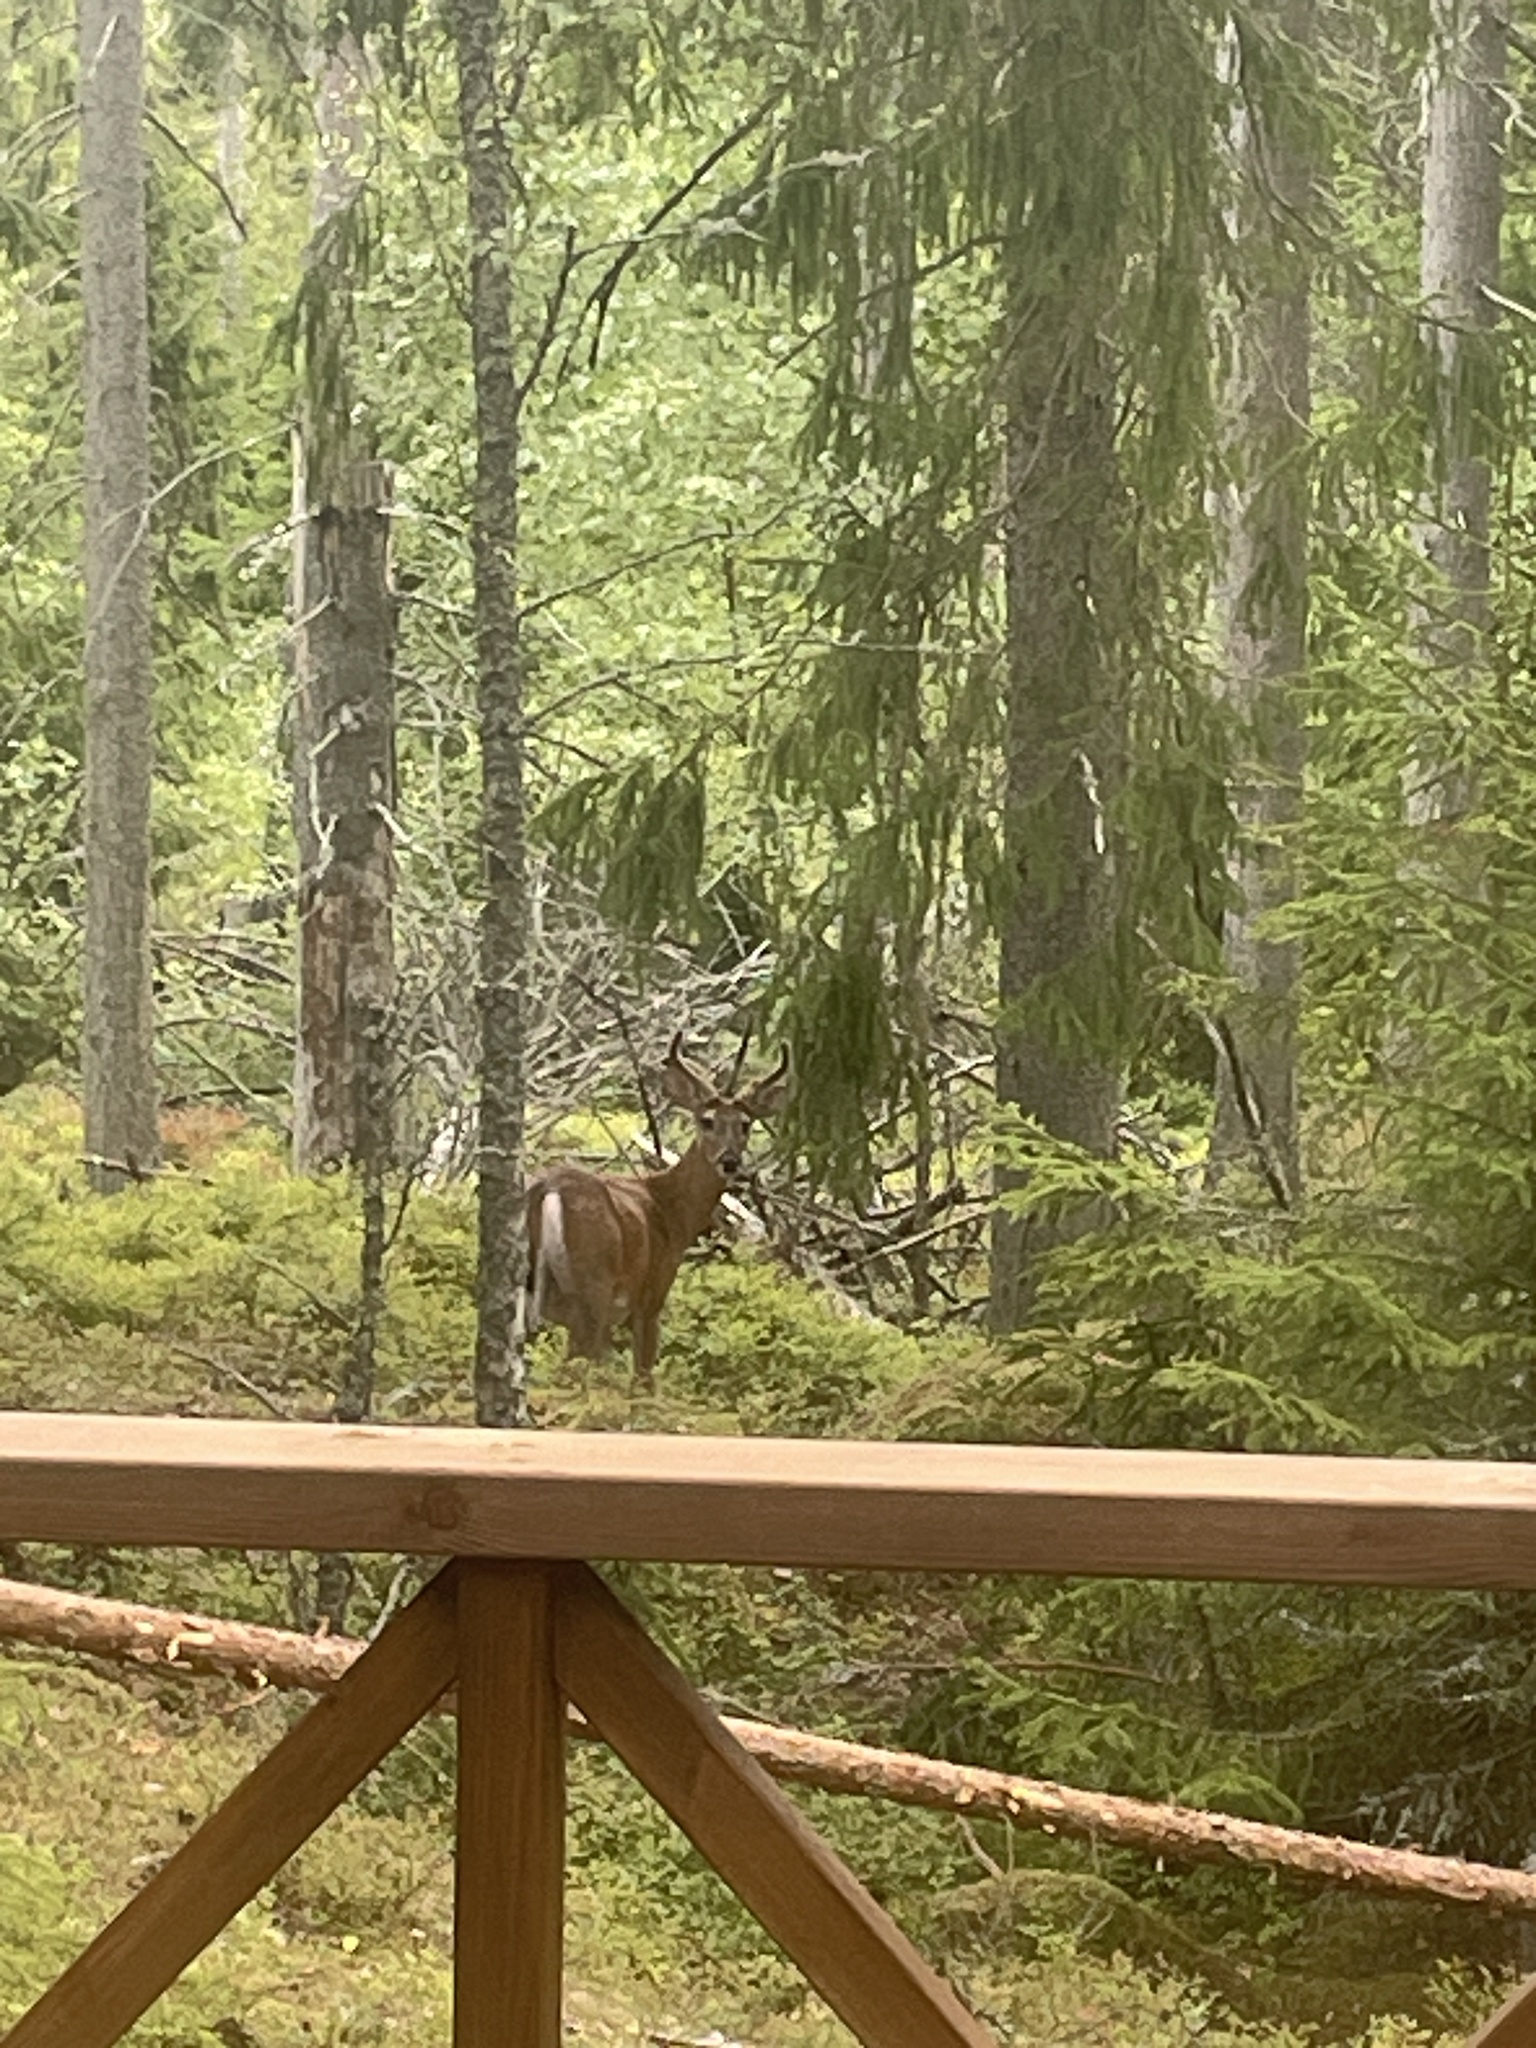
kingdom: Animalia
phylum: Chordata
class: Mammalia
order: Artiodactyla
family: Cervidae
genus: Odocoileus
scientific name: Odocoileus virginianus
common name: White-tailed deer
